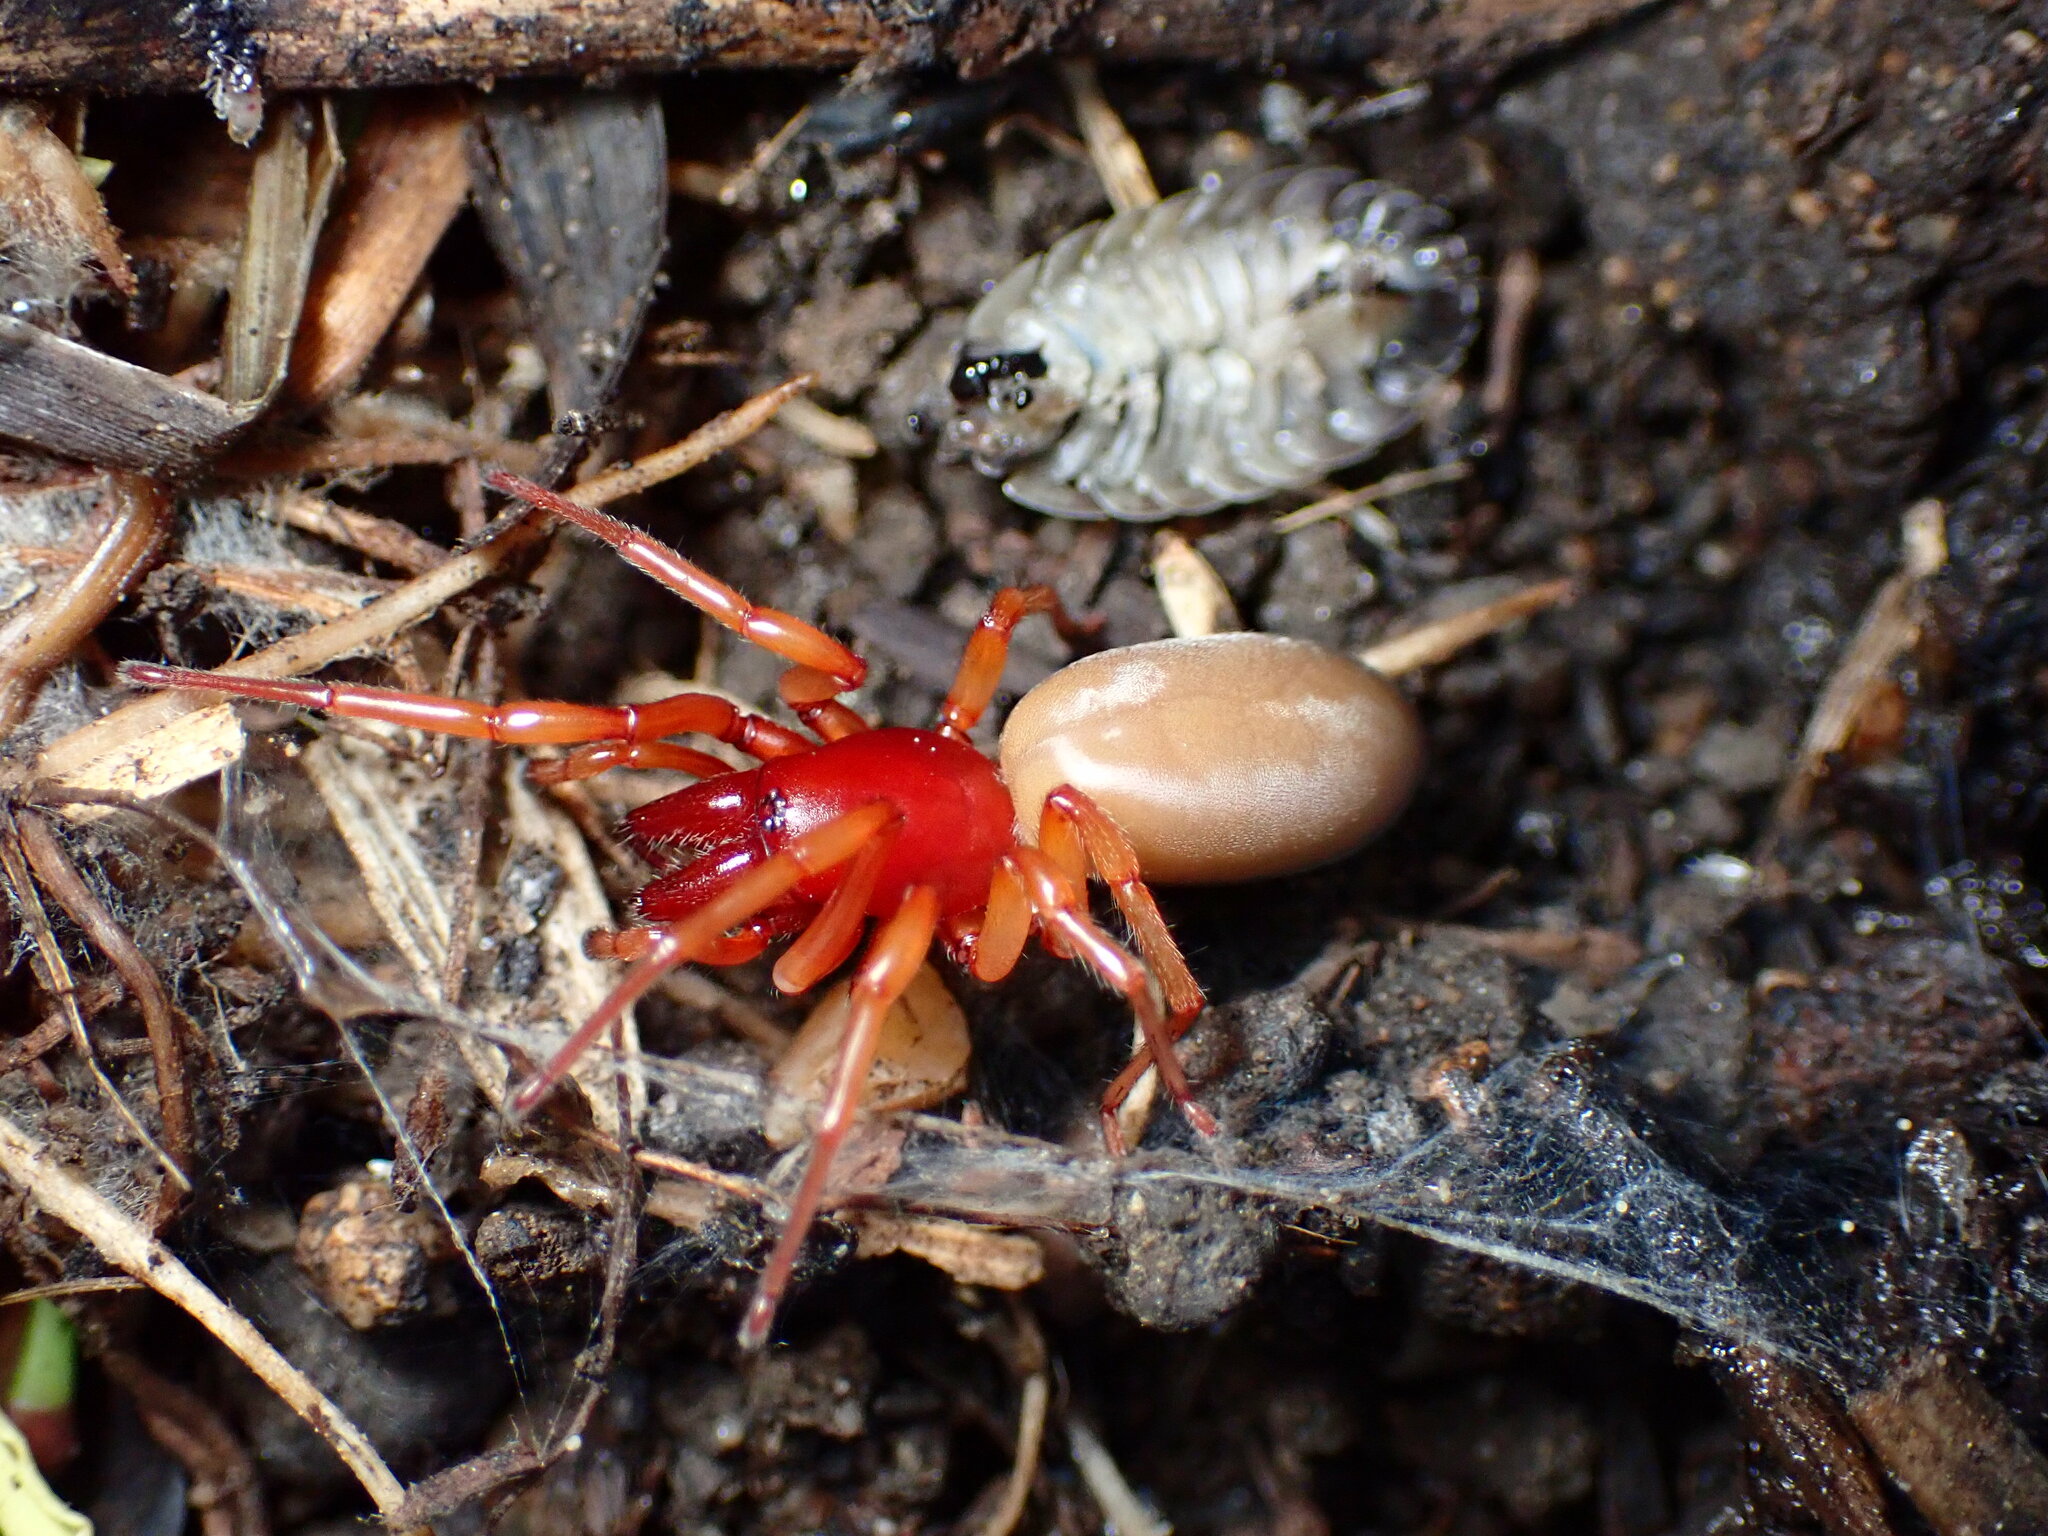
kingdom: Animalia
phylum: Arthropoda
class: Arachnida
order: Araneae
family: Dysderidae
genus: Dysdera
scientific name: Dysdera crocata
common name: Woodlouse spider
